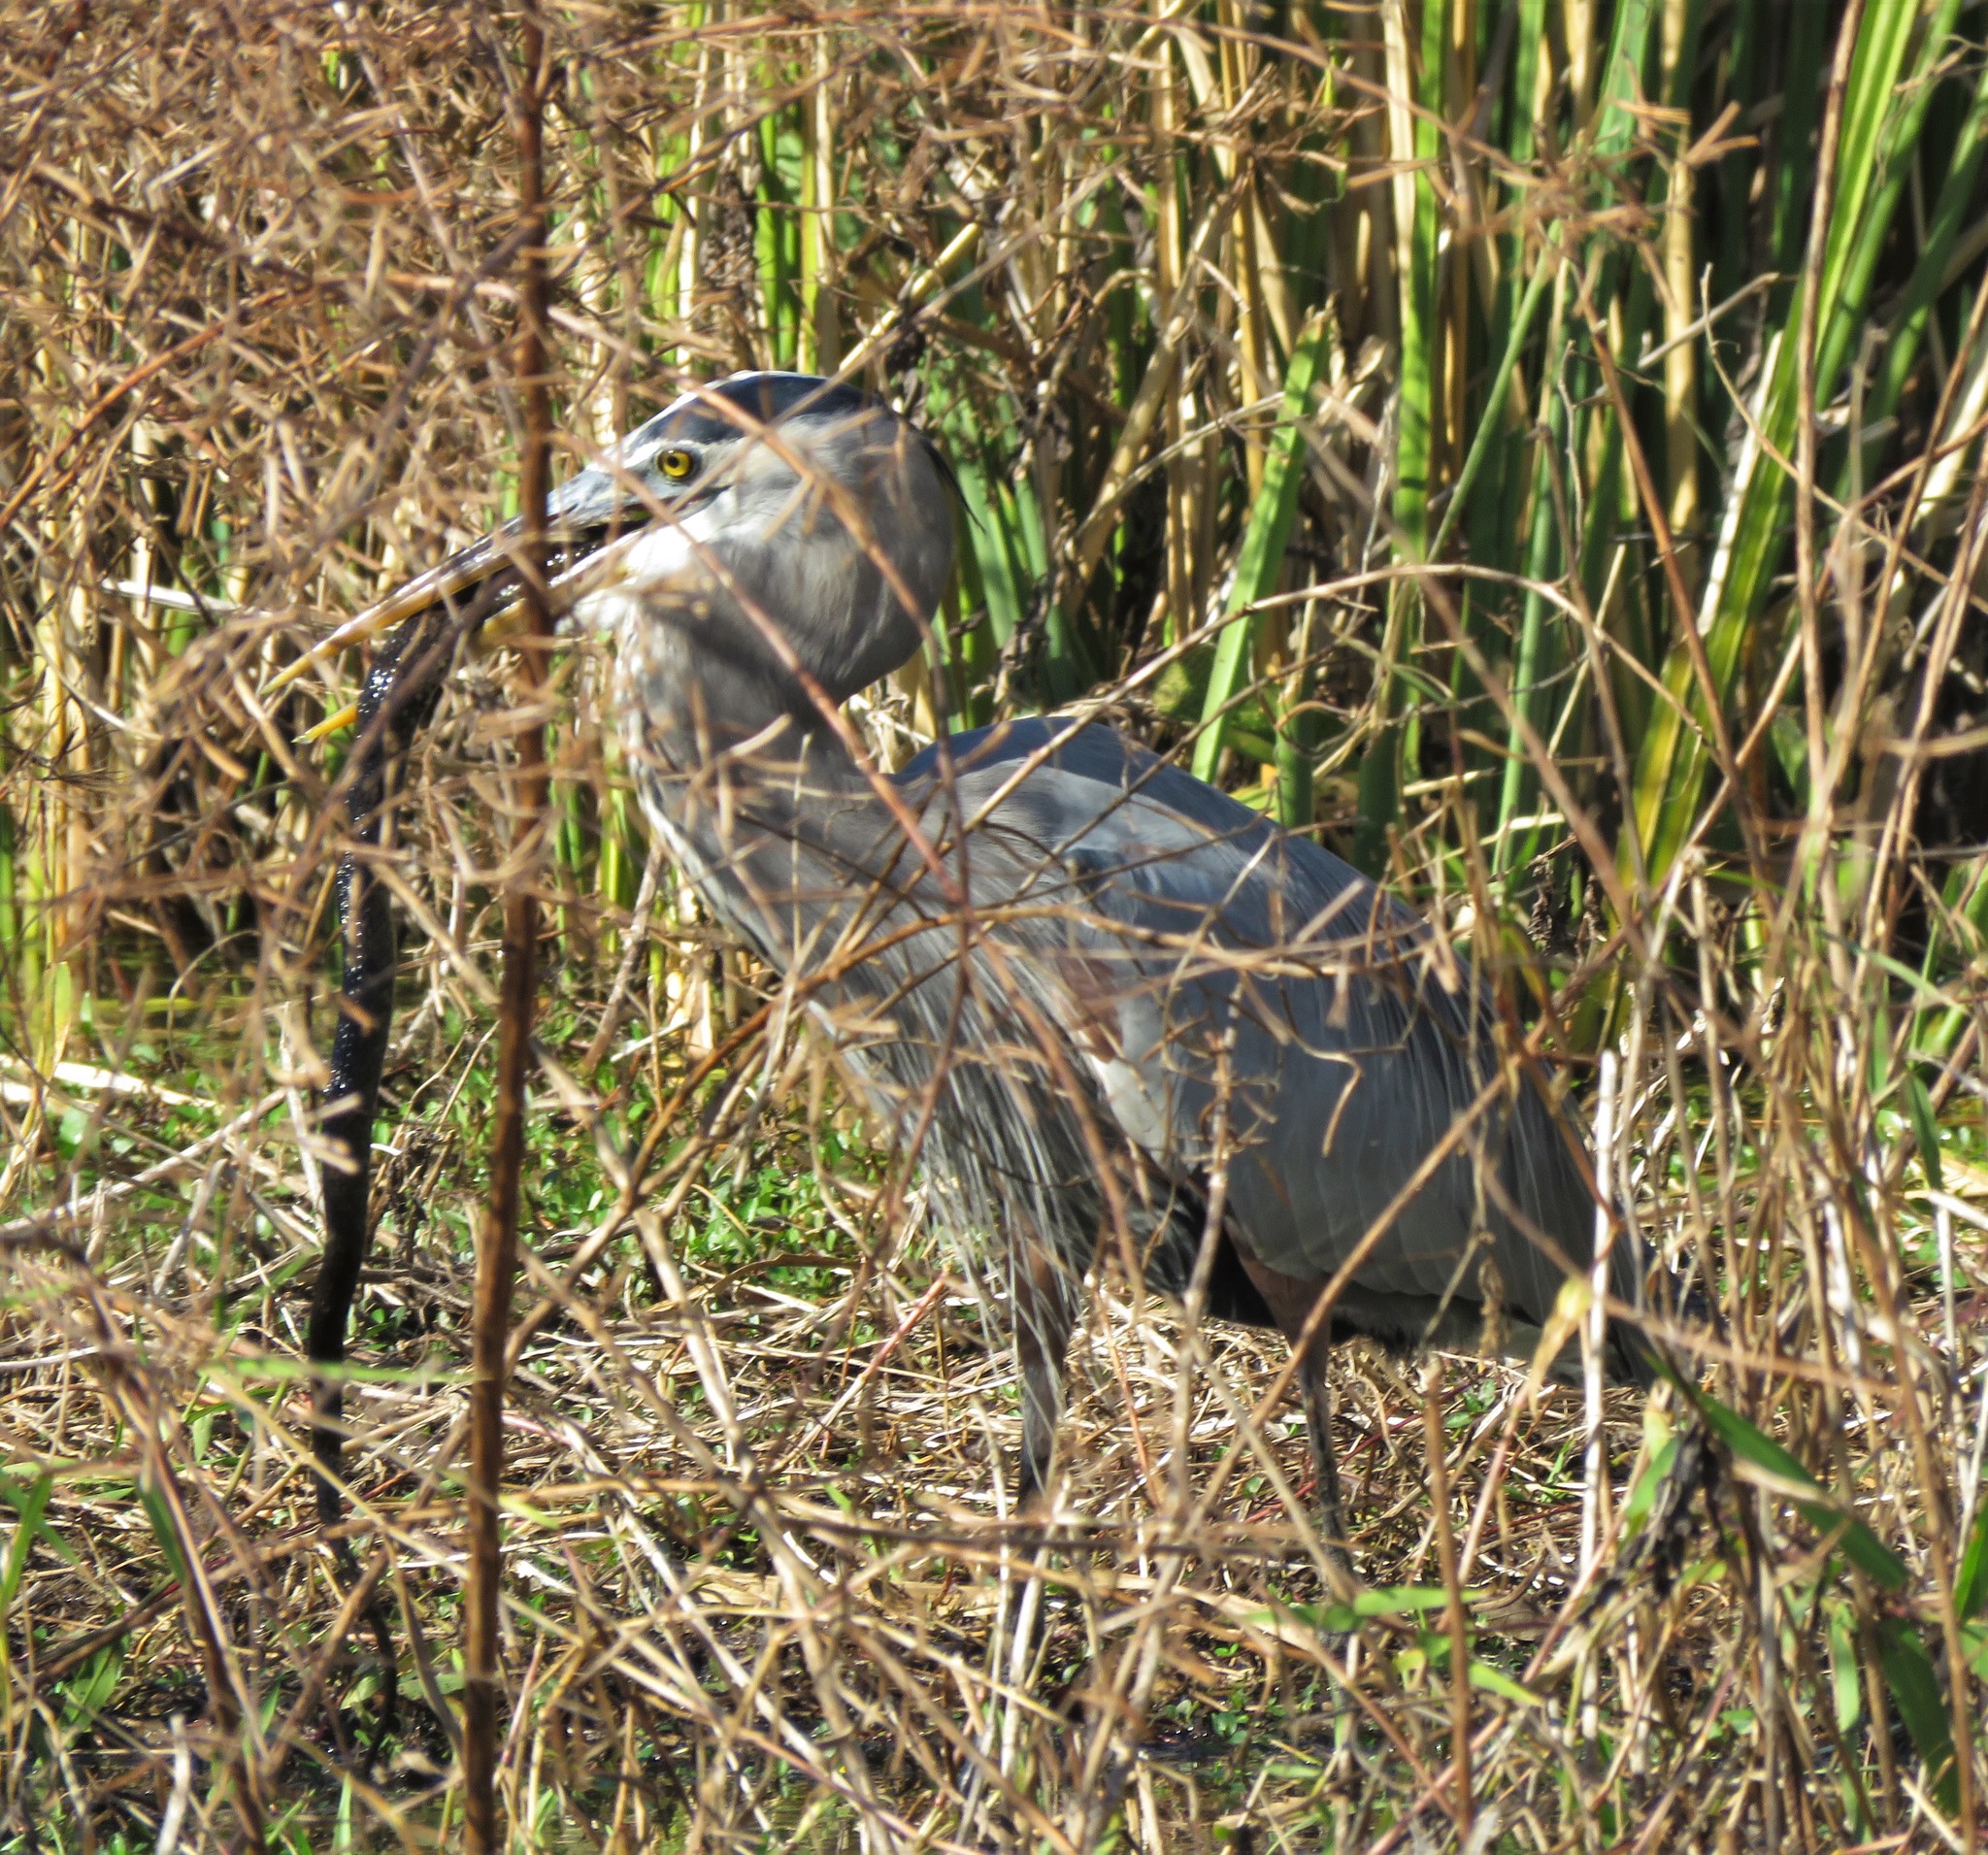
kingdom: Animalia
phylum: Chordata
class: Aves
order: Pelecaniformes
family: Ardeidae
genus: Ardea
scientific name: Ardea herodias
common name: Great blue heron
